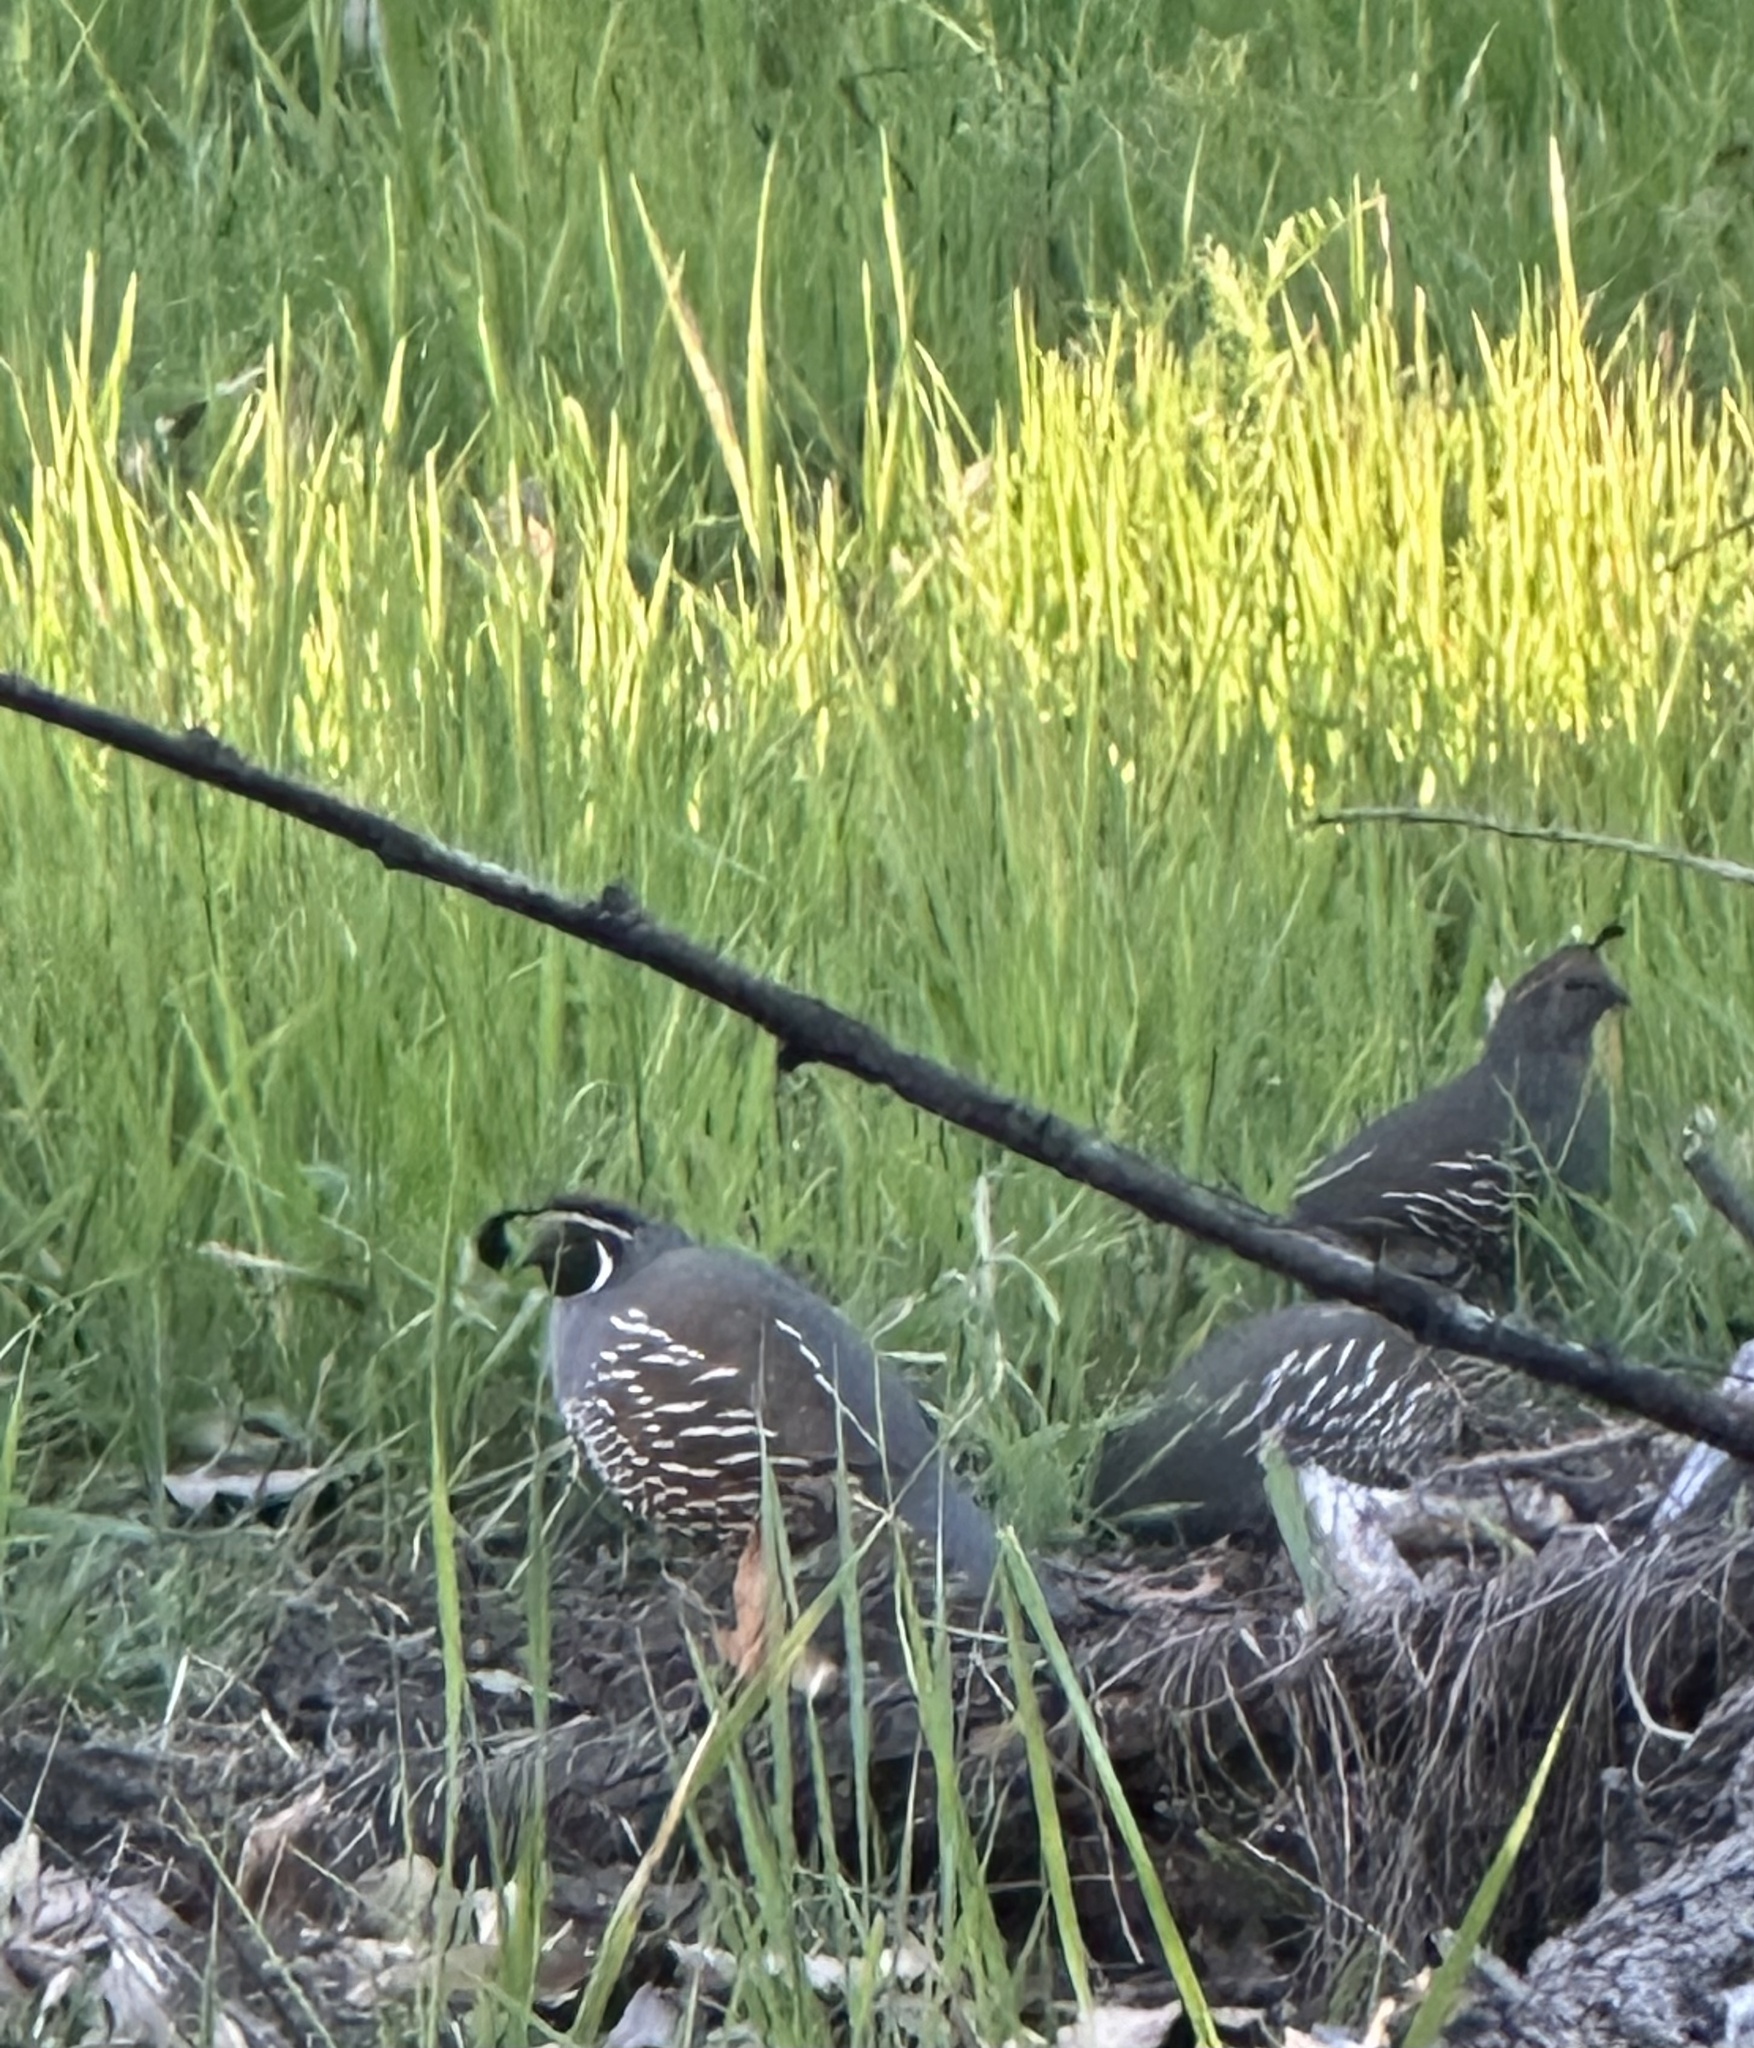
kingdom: Animalia
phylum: Chordata
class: Aves
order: Galliformes
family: Odontophoridae
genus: Callipepla
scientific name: Callipepla californica
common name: California quail
